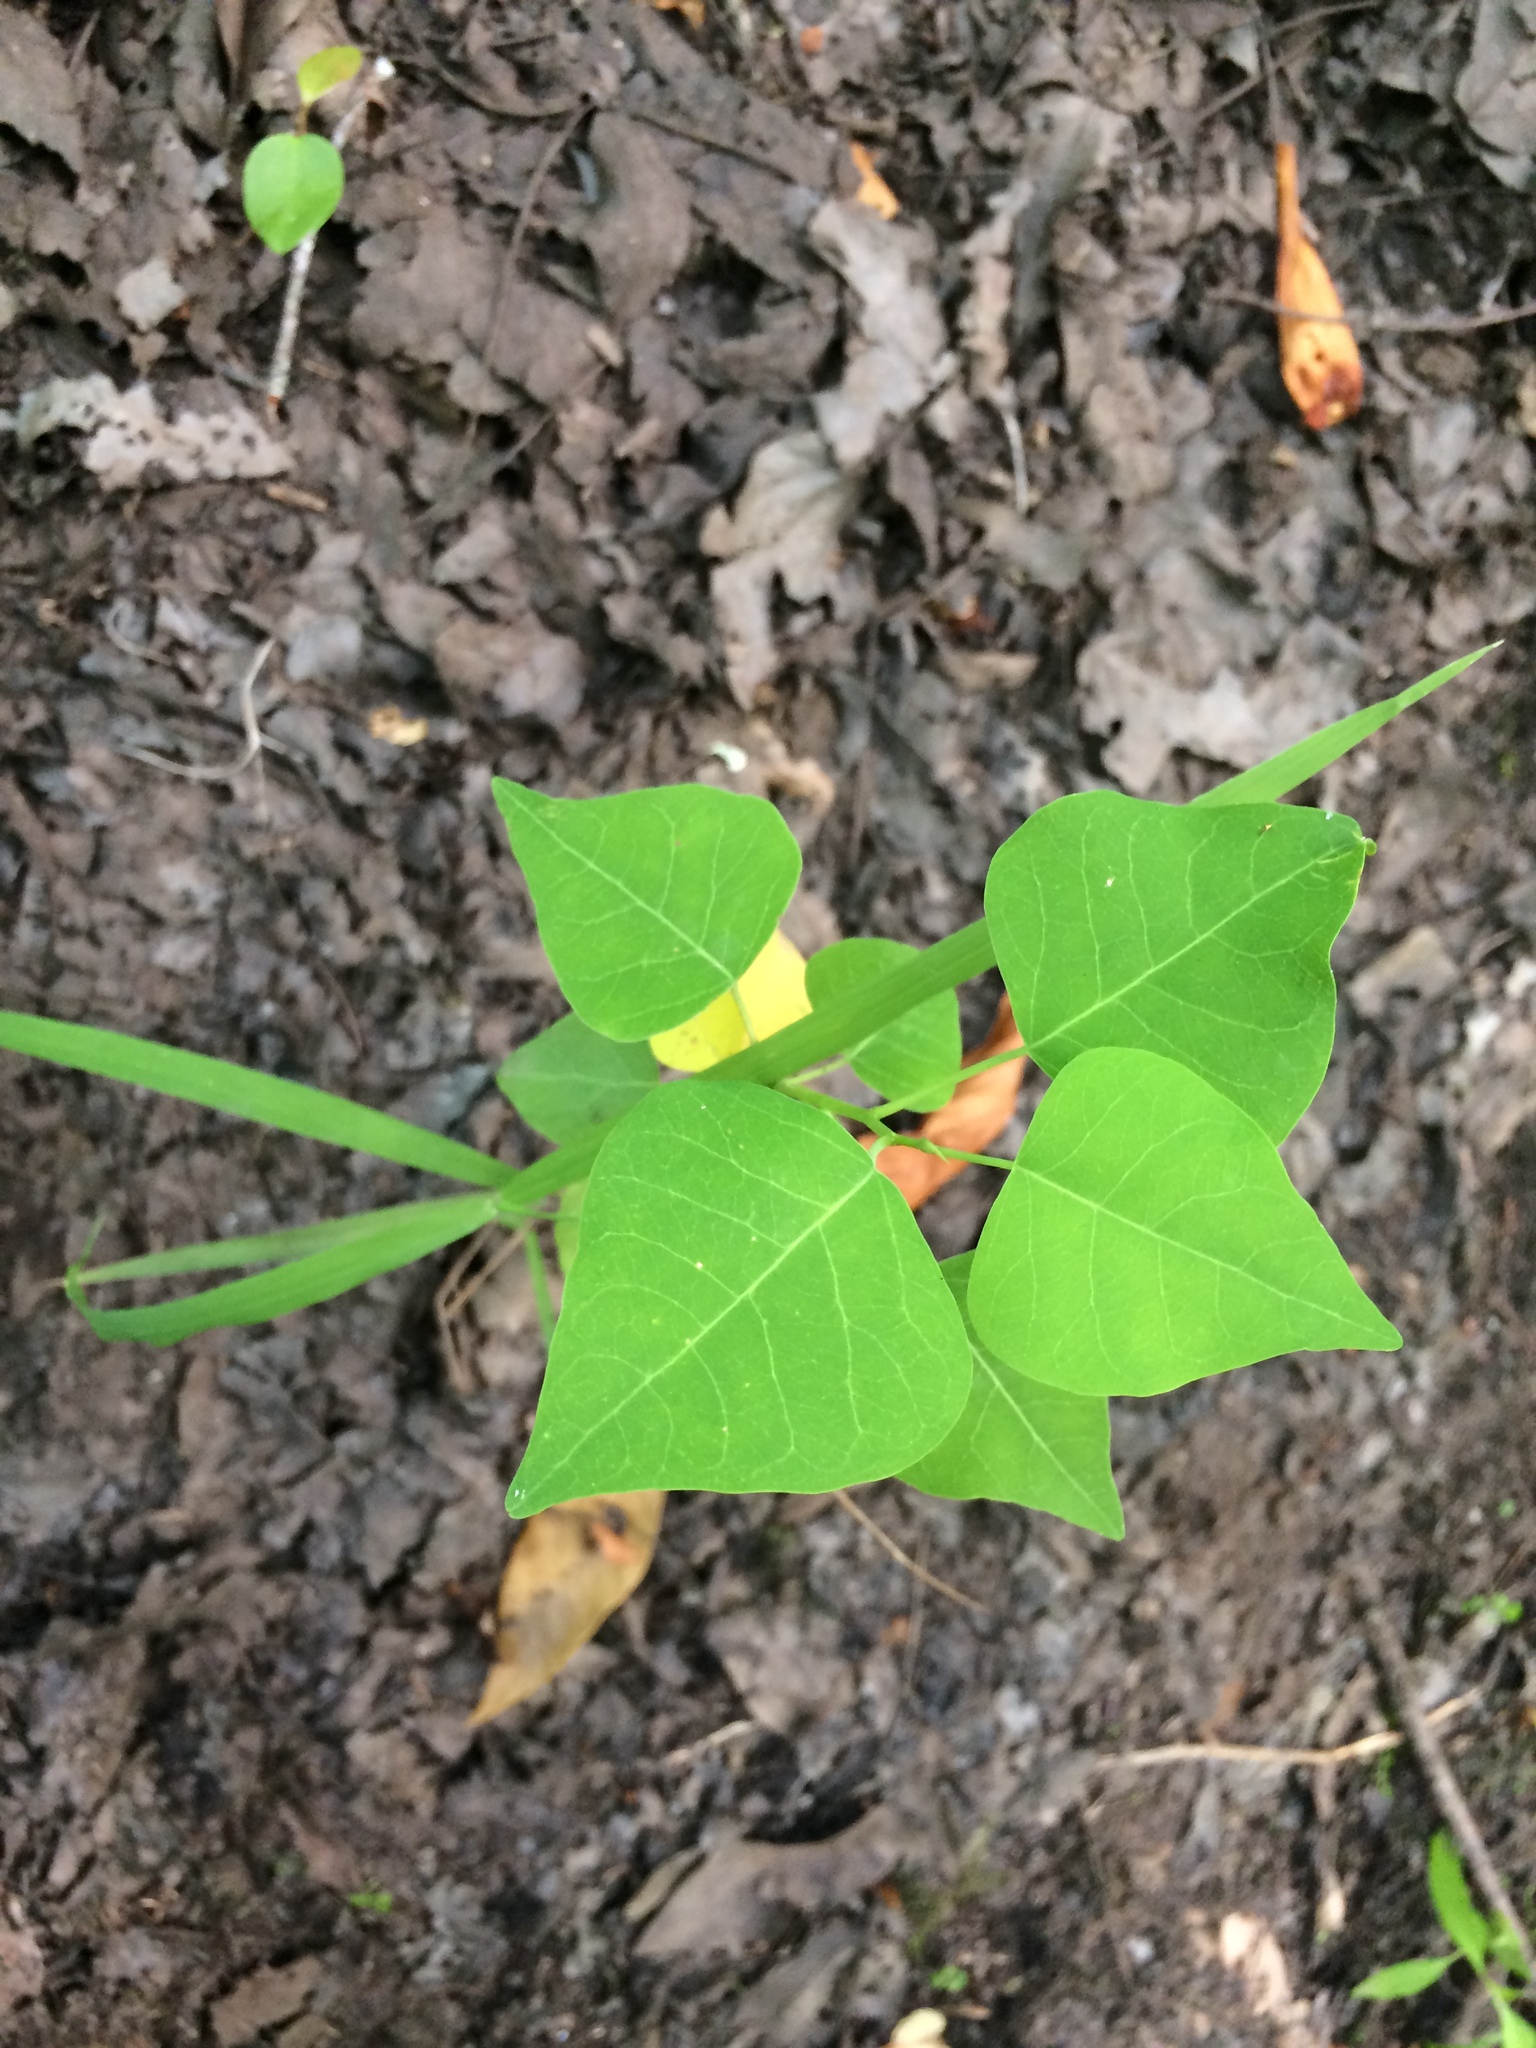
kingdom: Plantae
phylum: Tracheophyta
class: Magnoliopsida
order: Malpighiales
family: Euphorbiaceae
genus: Triadica
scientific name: Triadica sebifera
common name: Chinese tallow
